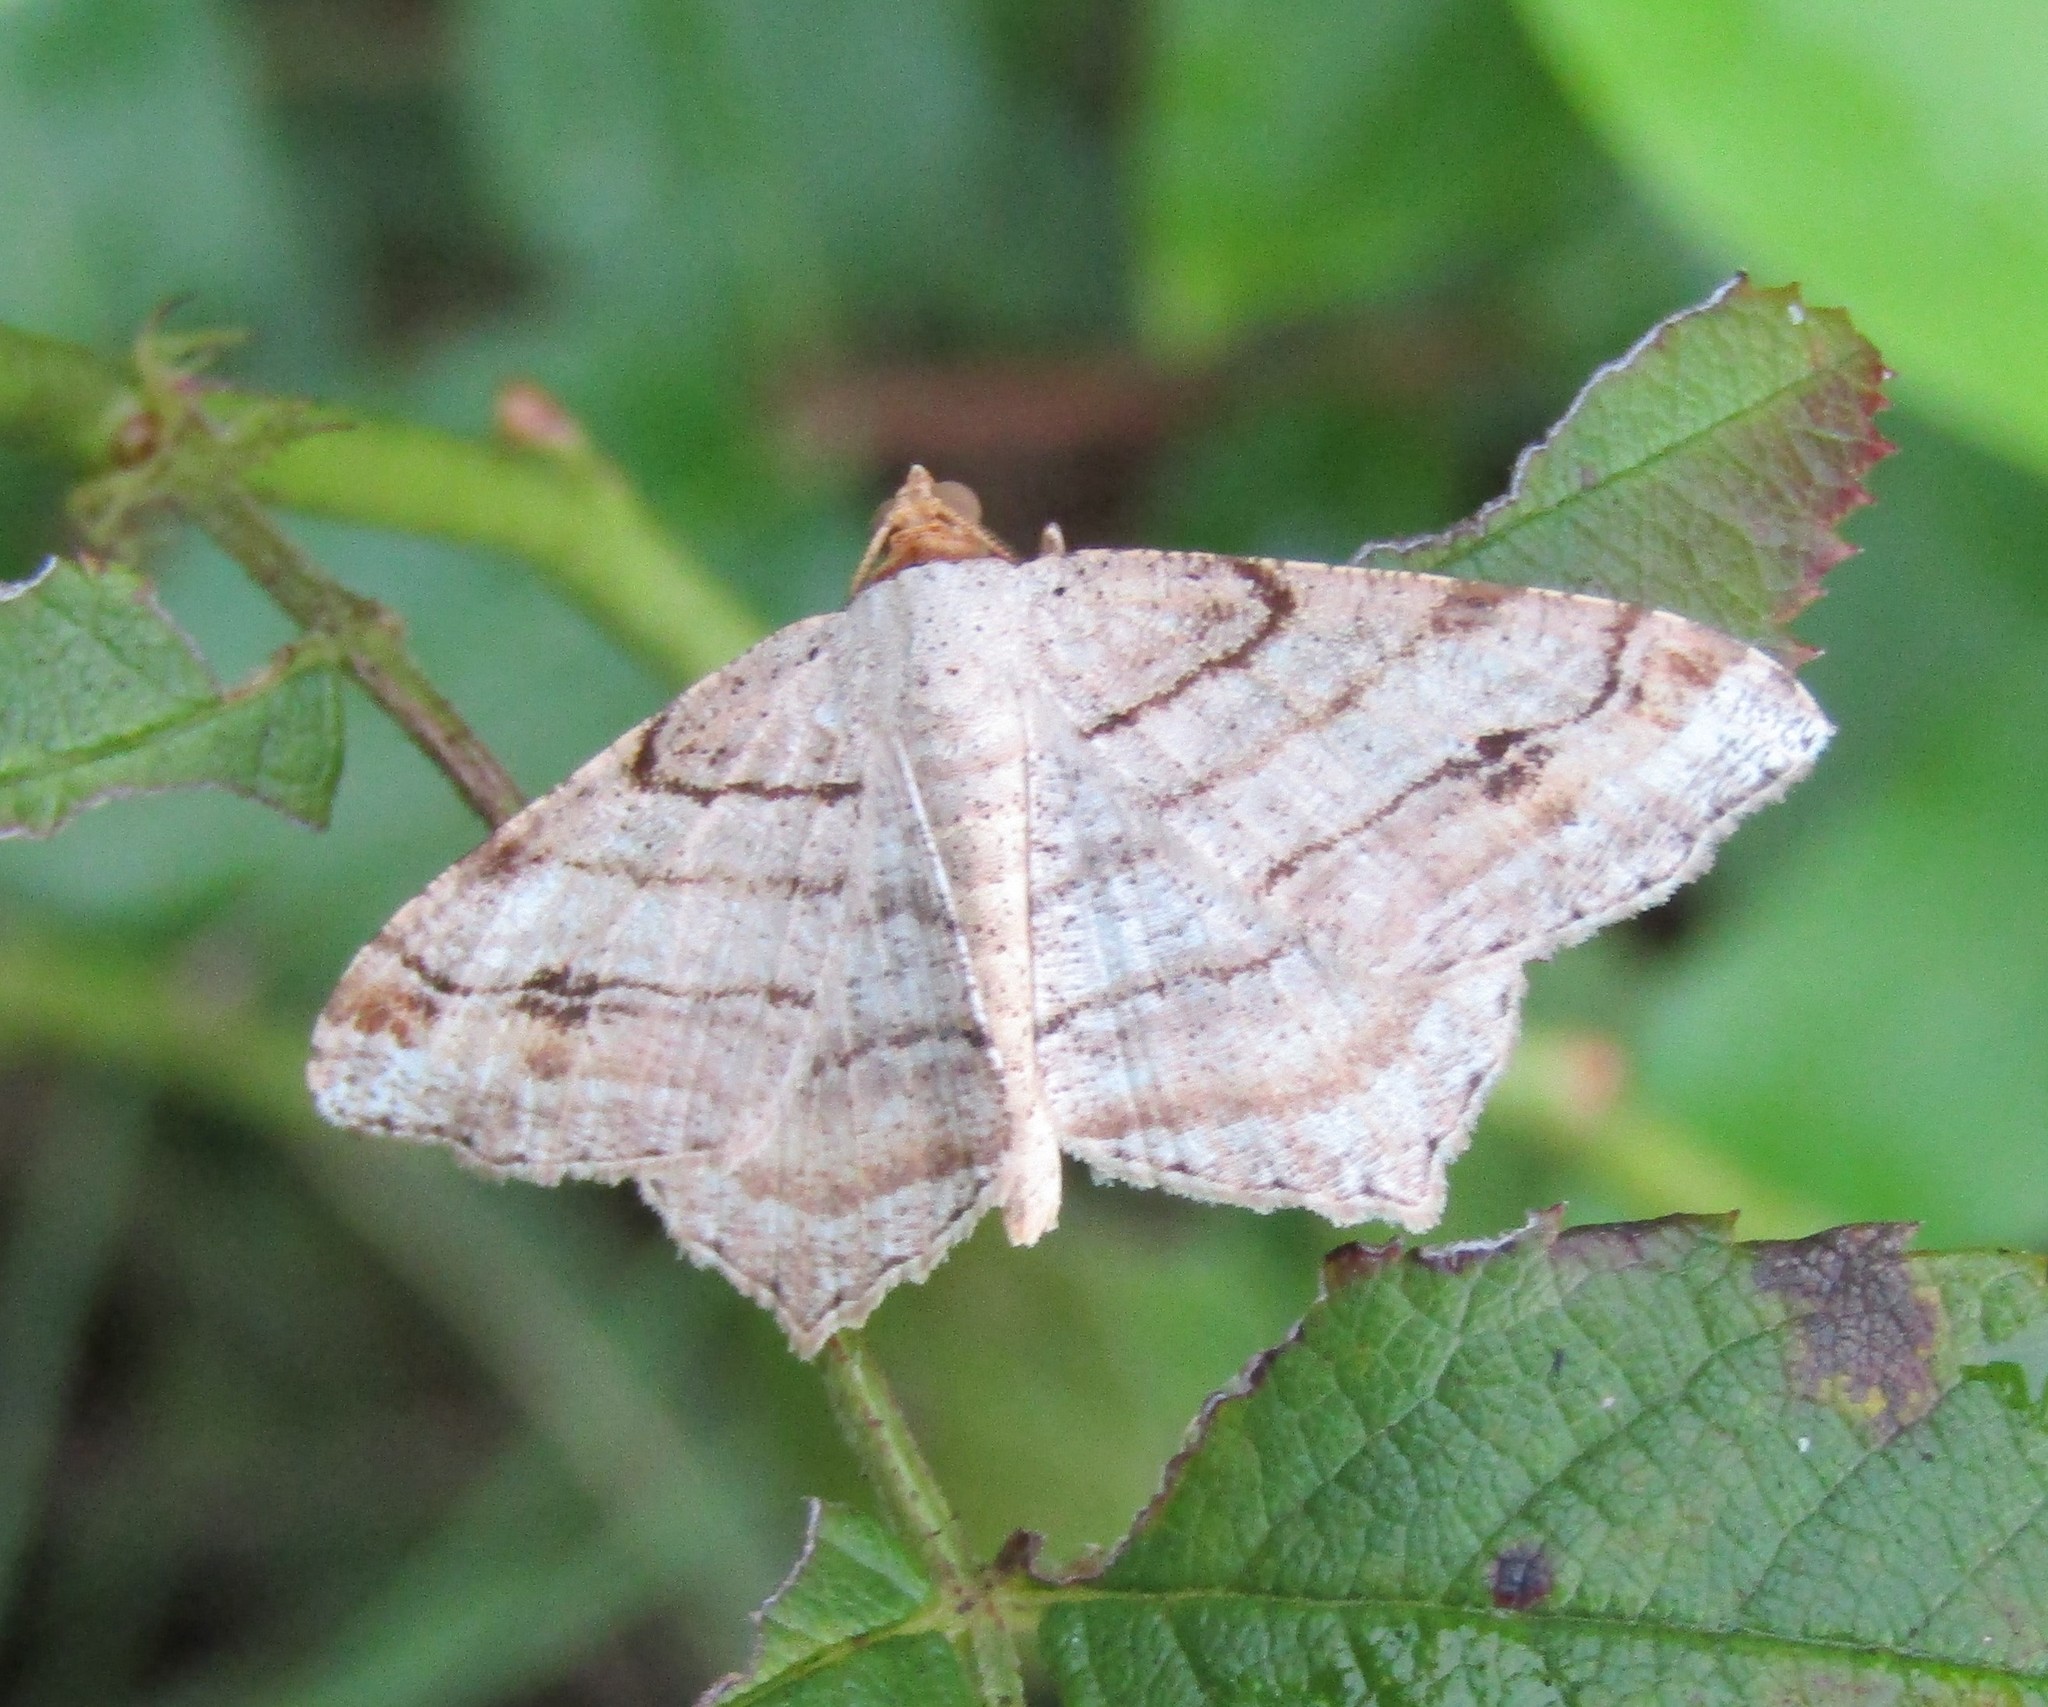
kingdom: Animalia
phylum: Arthropoda
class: Insecta
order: Lepidoptera
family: Geometridae
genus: Macaria
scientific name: Macaria multilineata
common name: Many-lined angle
